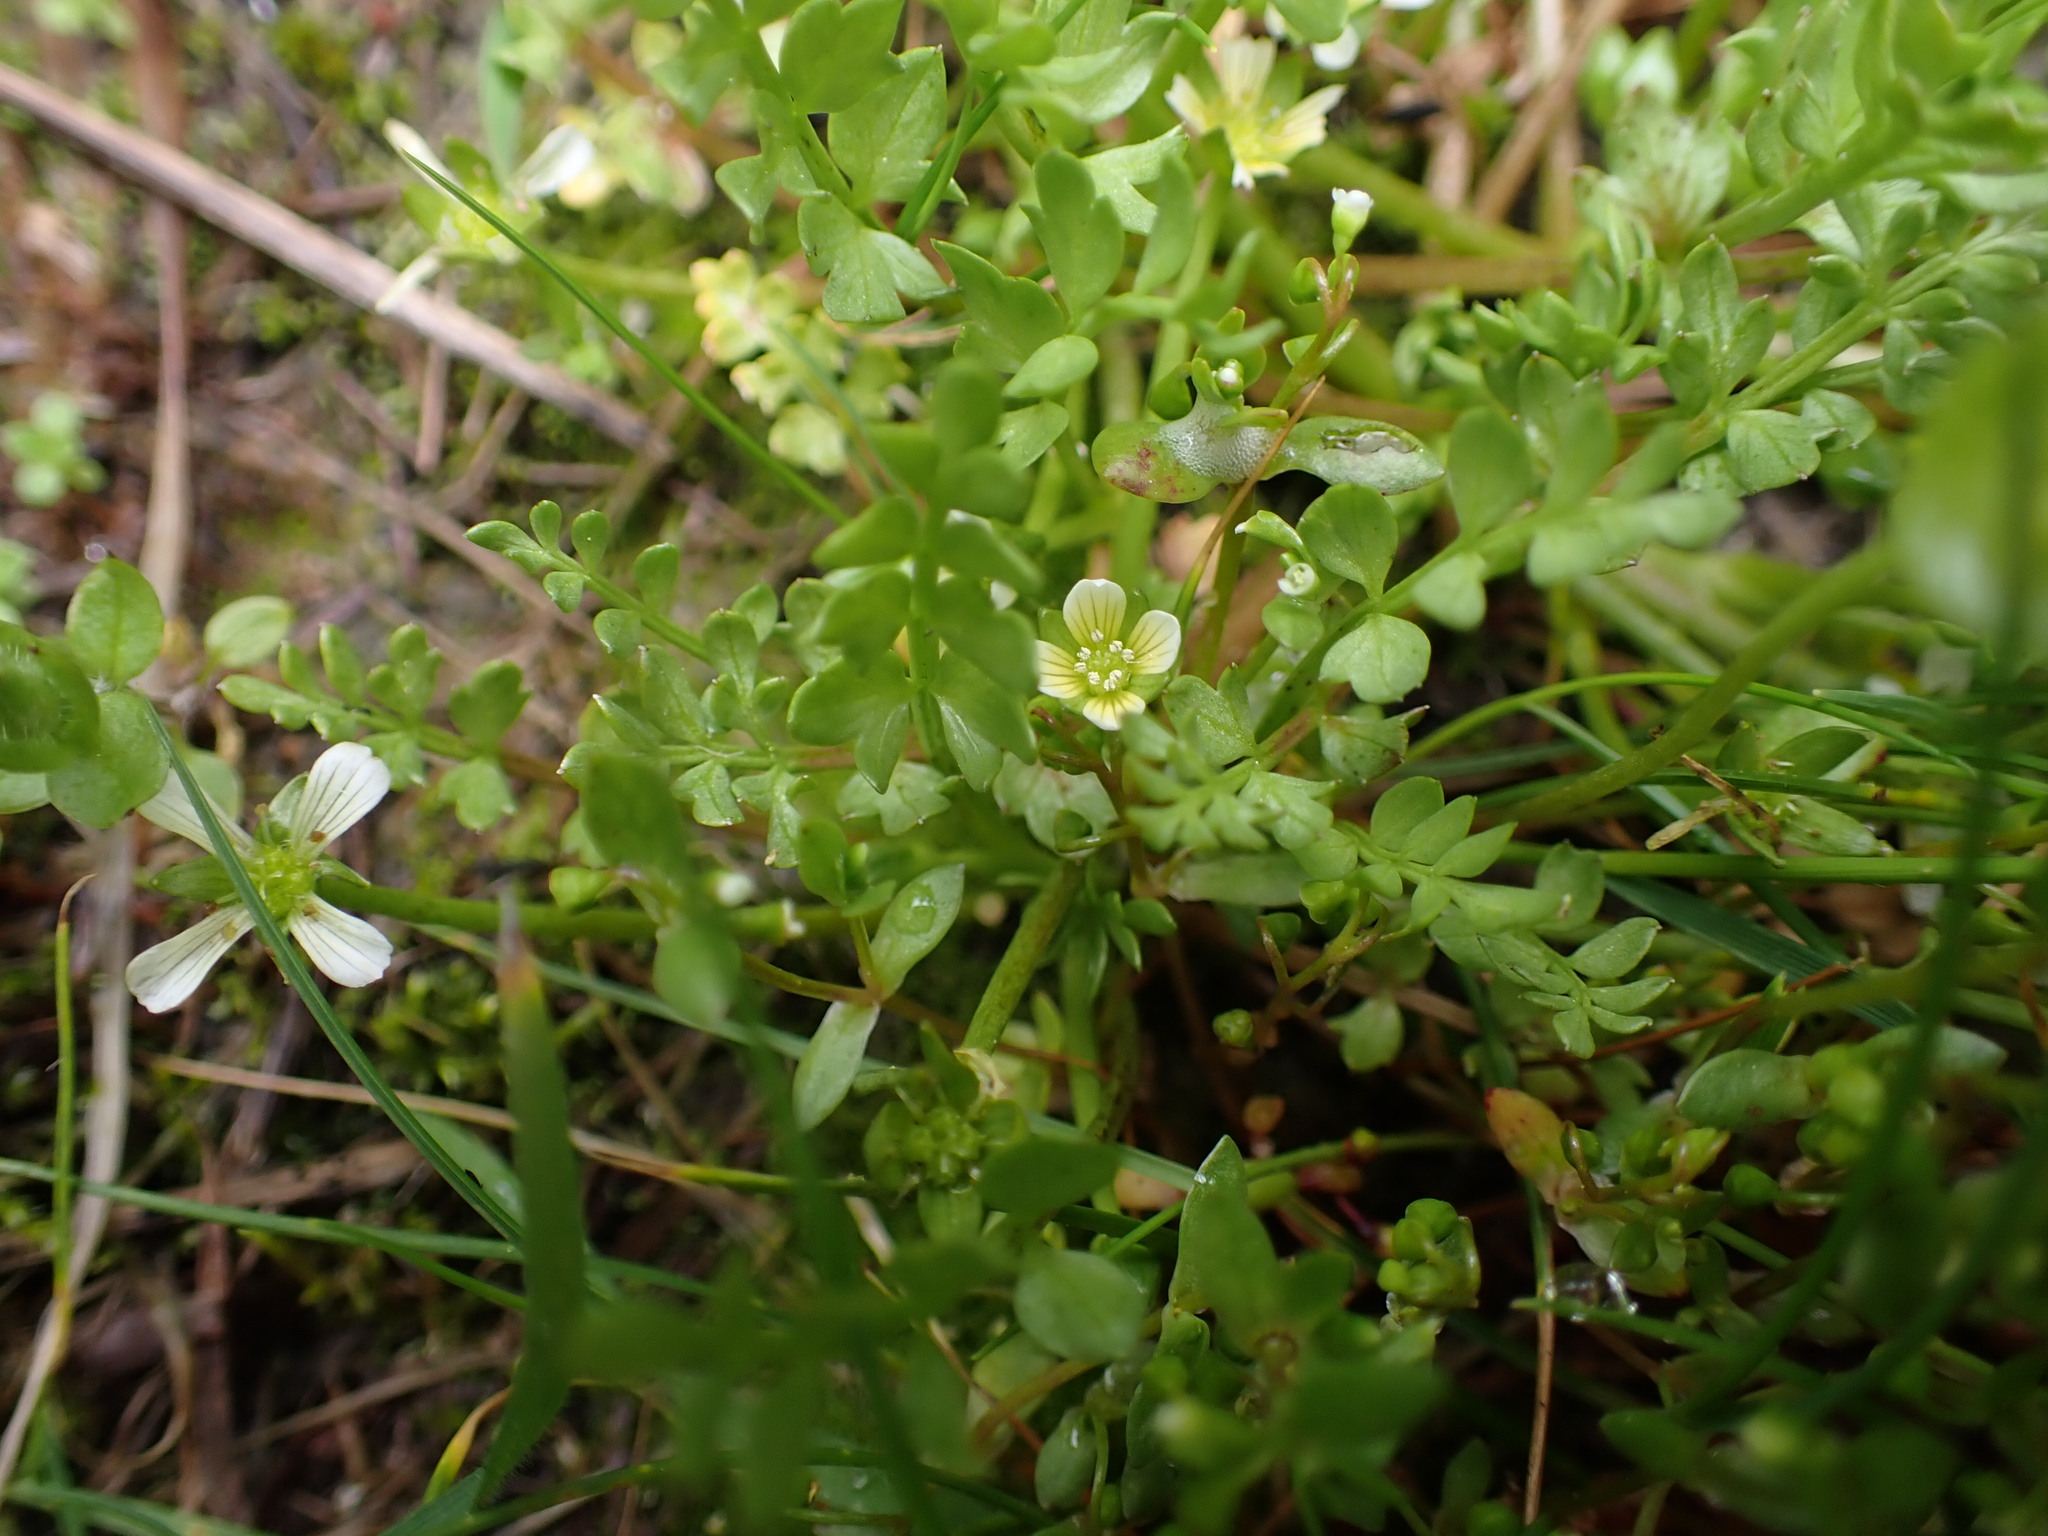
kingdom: Plantae
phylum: Tracheophyta
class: Magnoliopsida
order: Brassicales
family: Limnanthaceae
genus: Limnanthes
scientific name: Limnanthes macounii
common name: Macoun's meadowfoam
